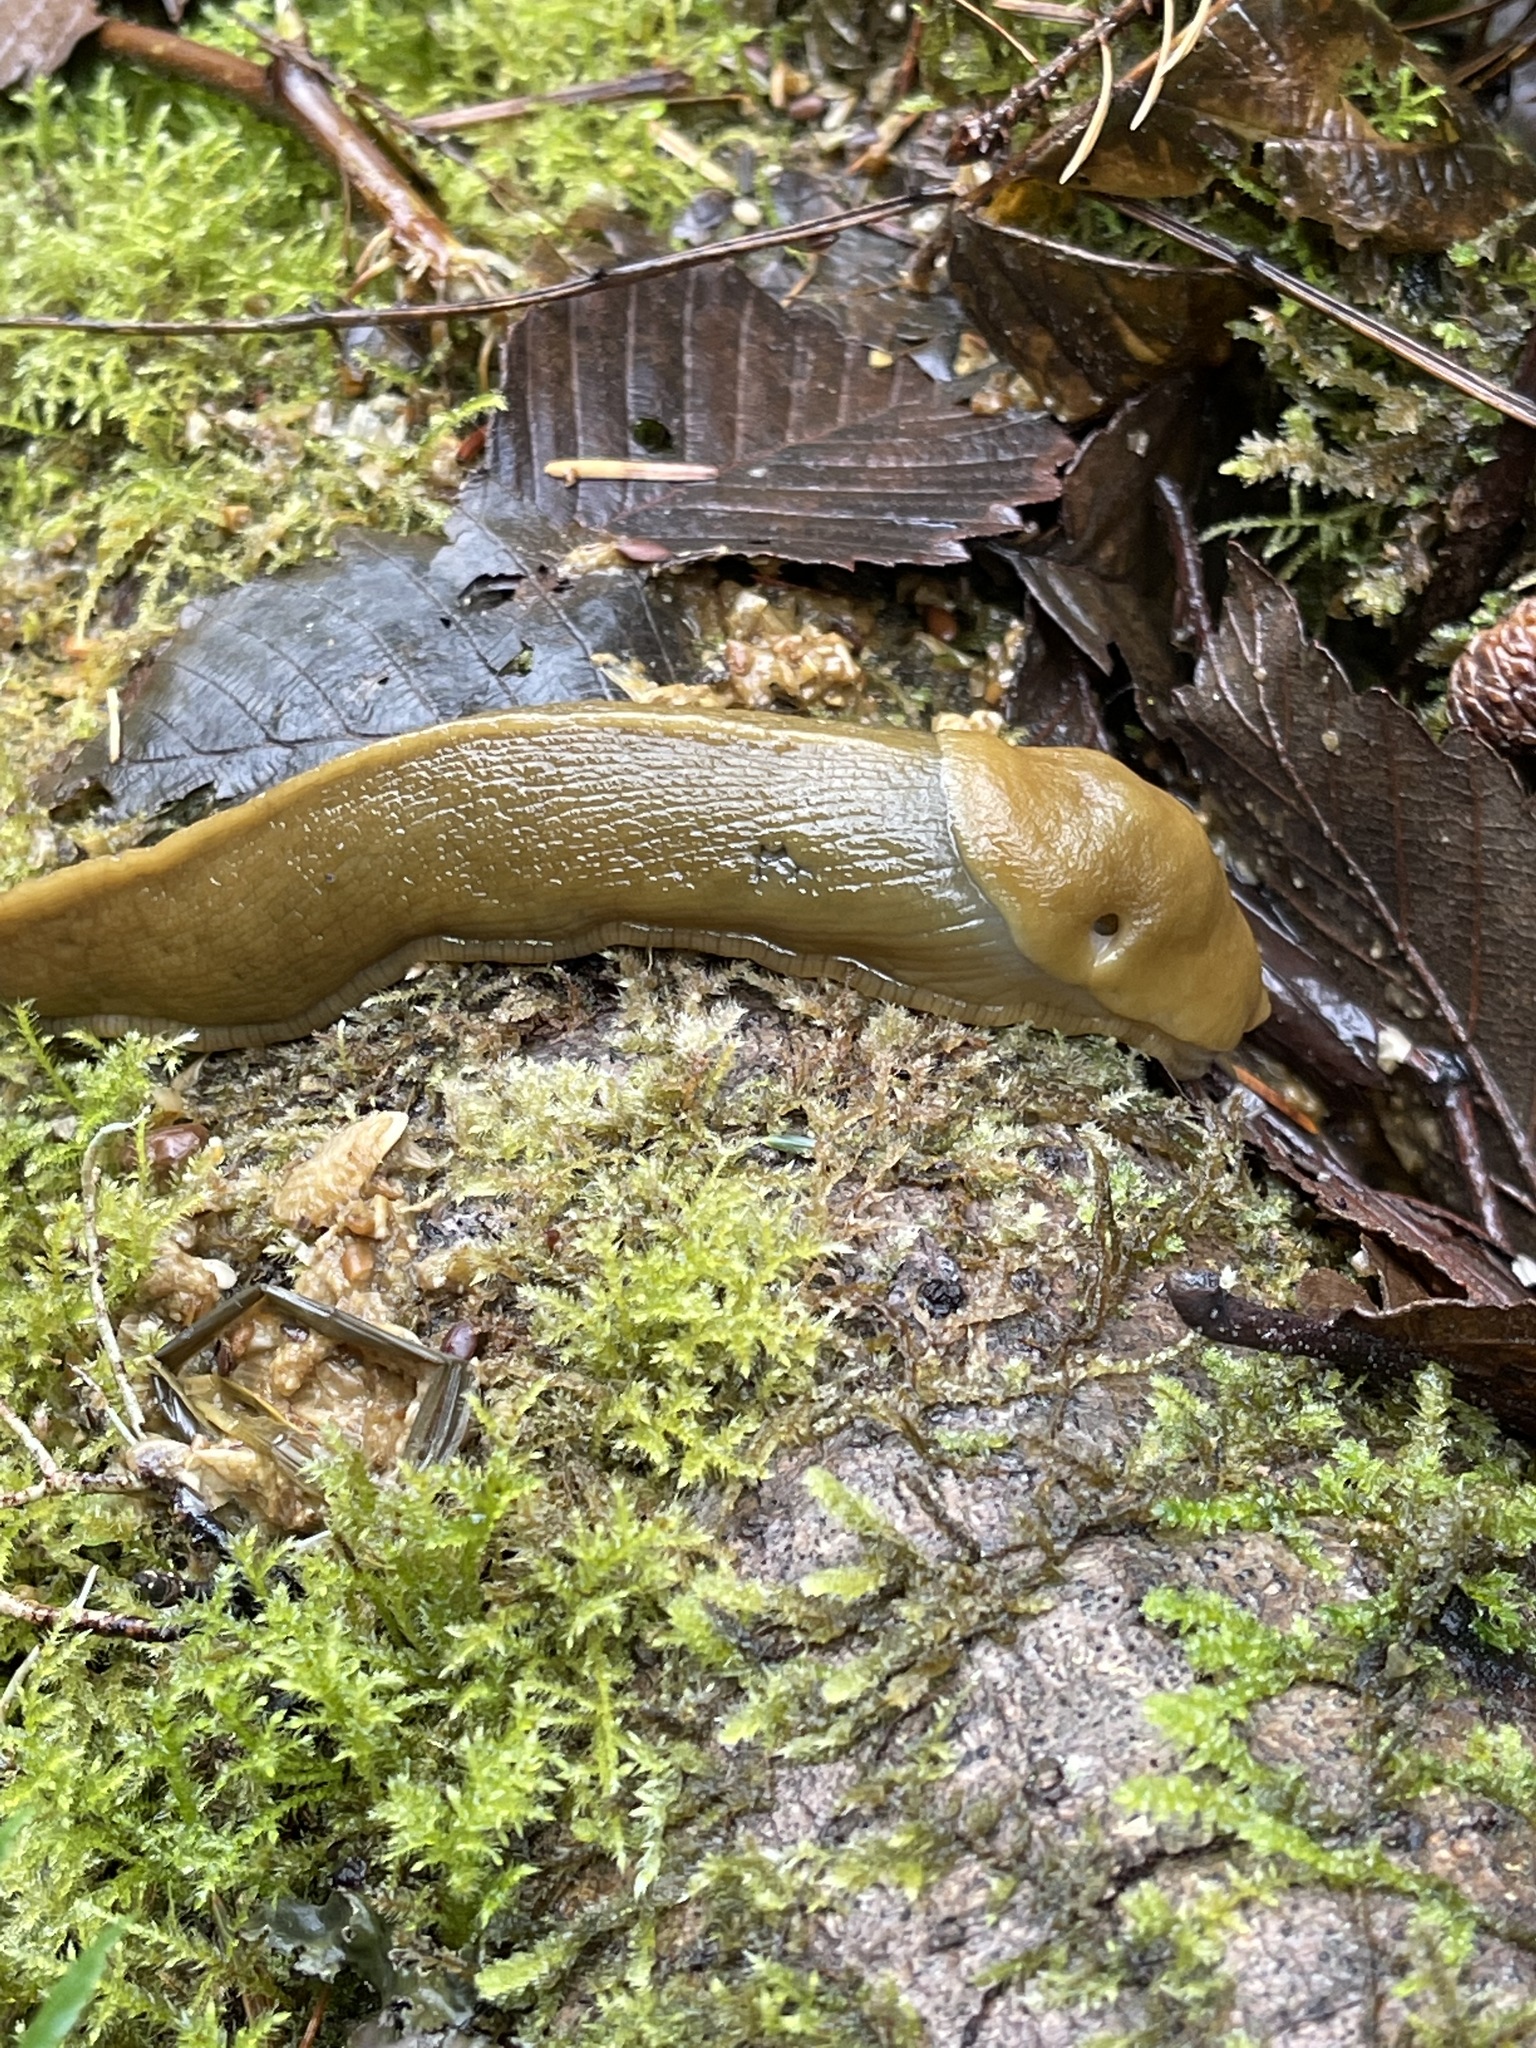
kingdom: Animalia
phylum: Mollusca
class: Gastropoda
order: Stylommatophora
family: Ariolimacidae
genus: Ariolimax
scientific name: Ariolimax columbianus
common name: Pacific banana slug
